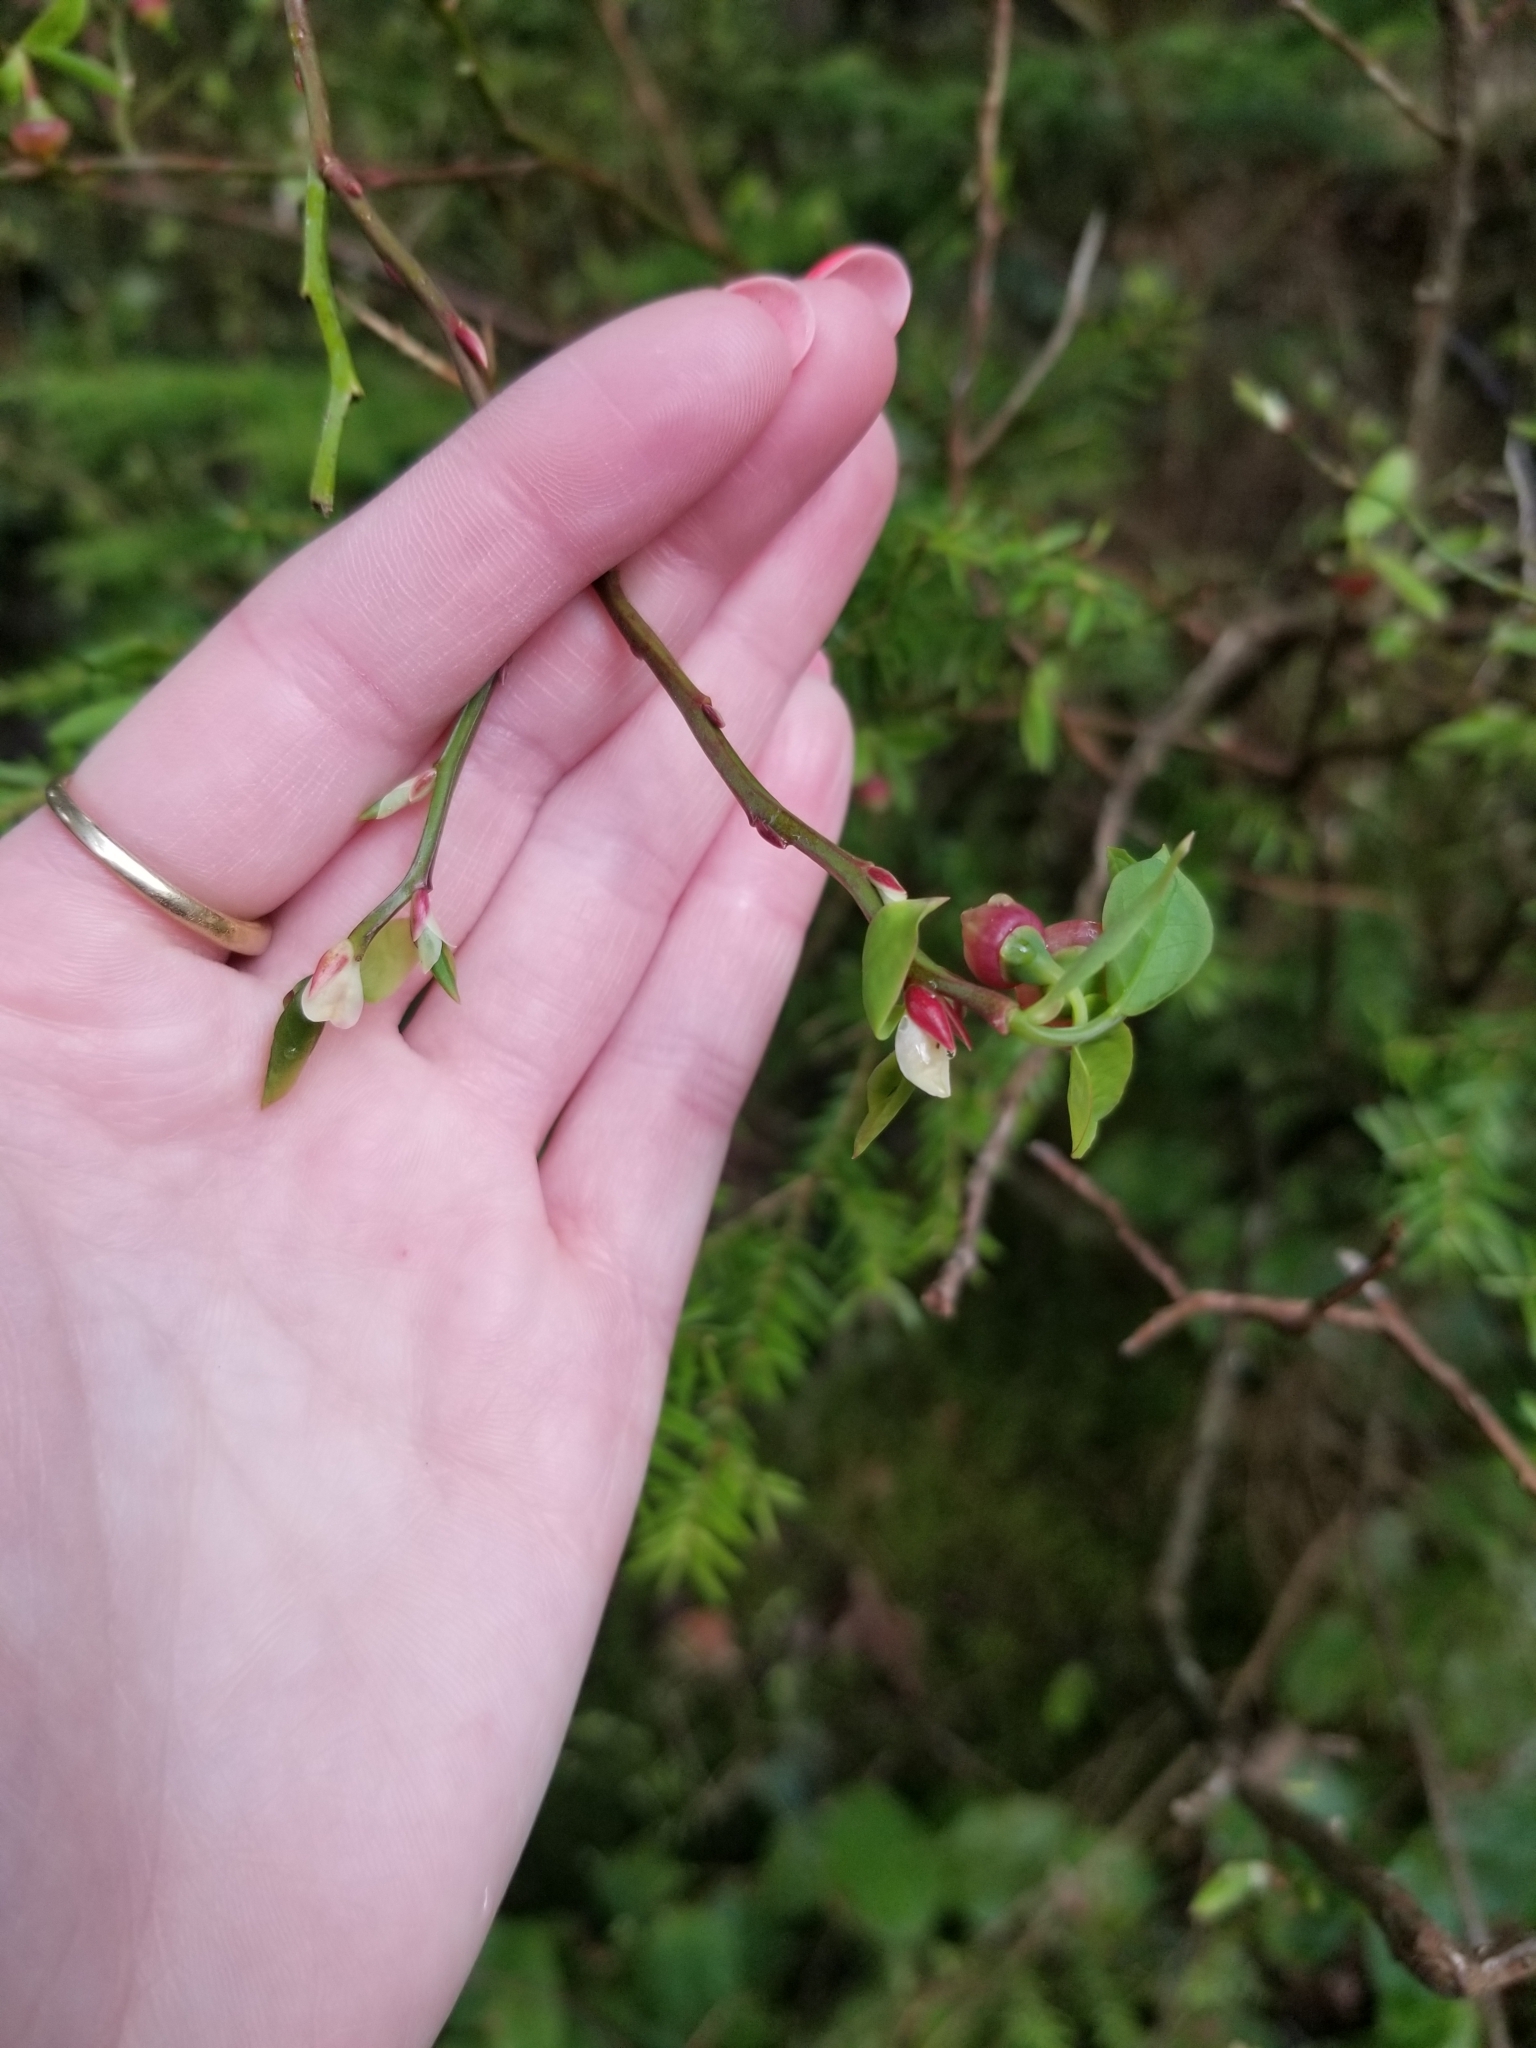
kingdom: Plantae
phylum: Tracheophyta
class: Magnoliopsida
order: Ericales
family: Ericaceae
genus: Vaccinium
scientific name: Vaccinium parvifolium
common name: Red-huckleberry
